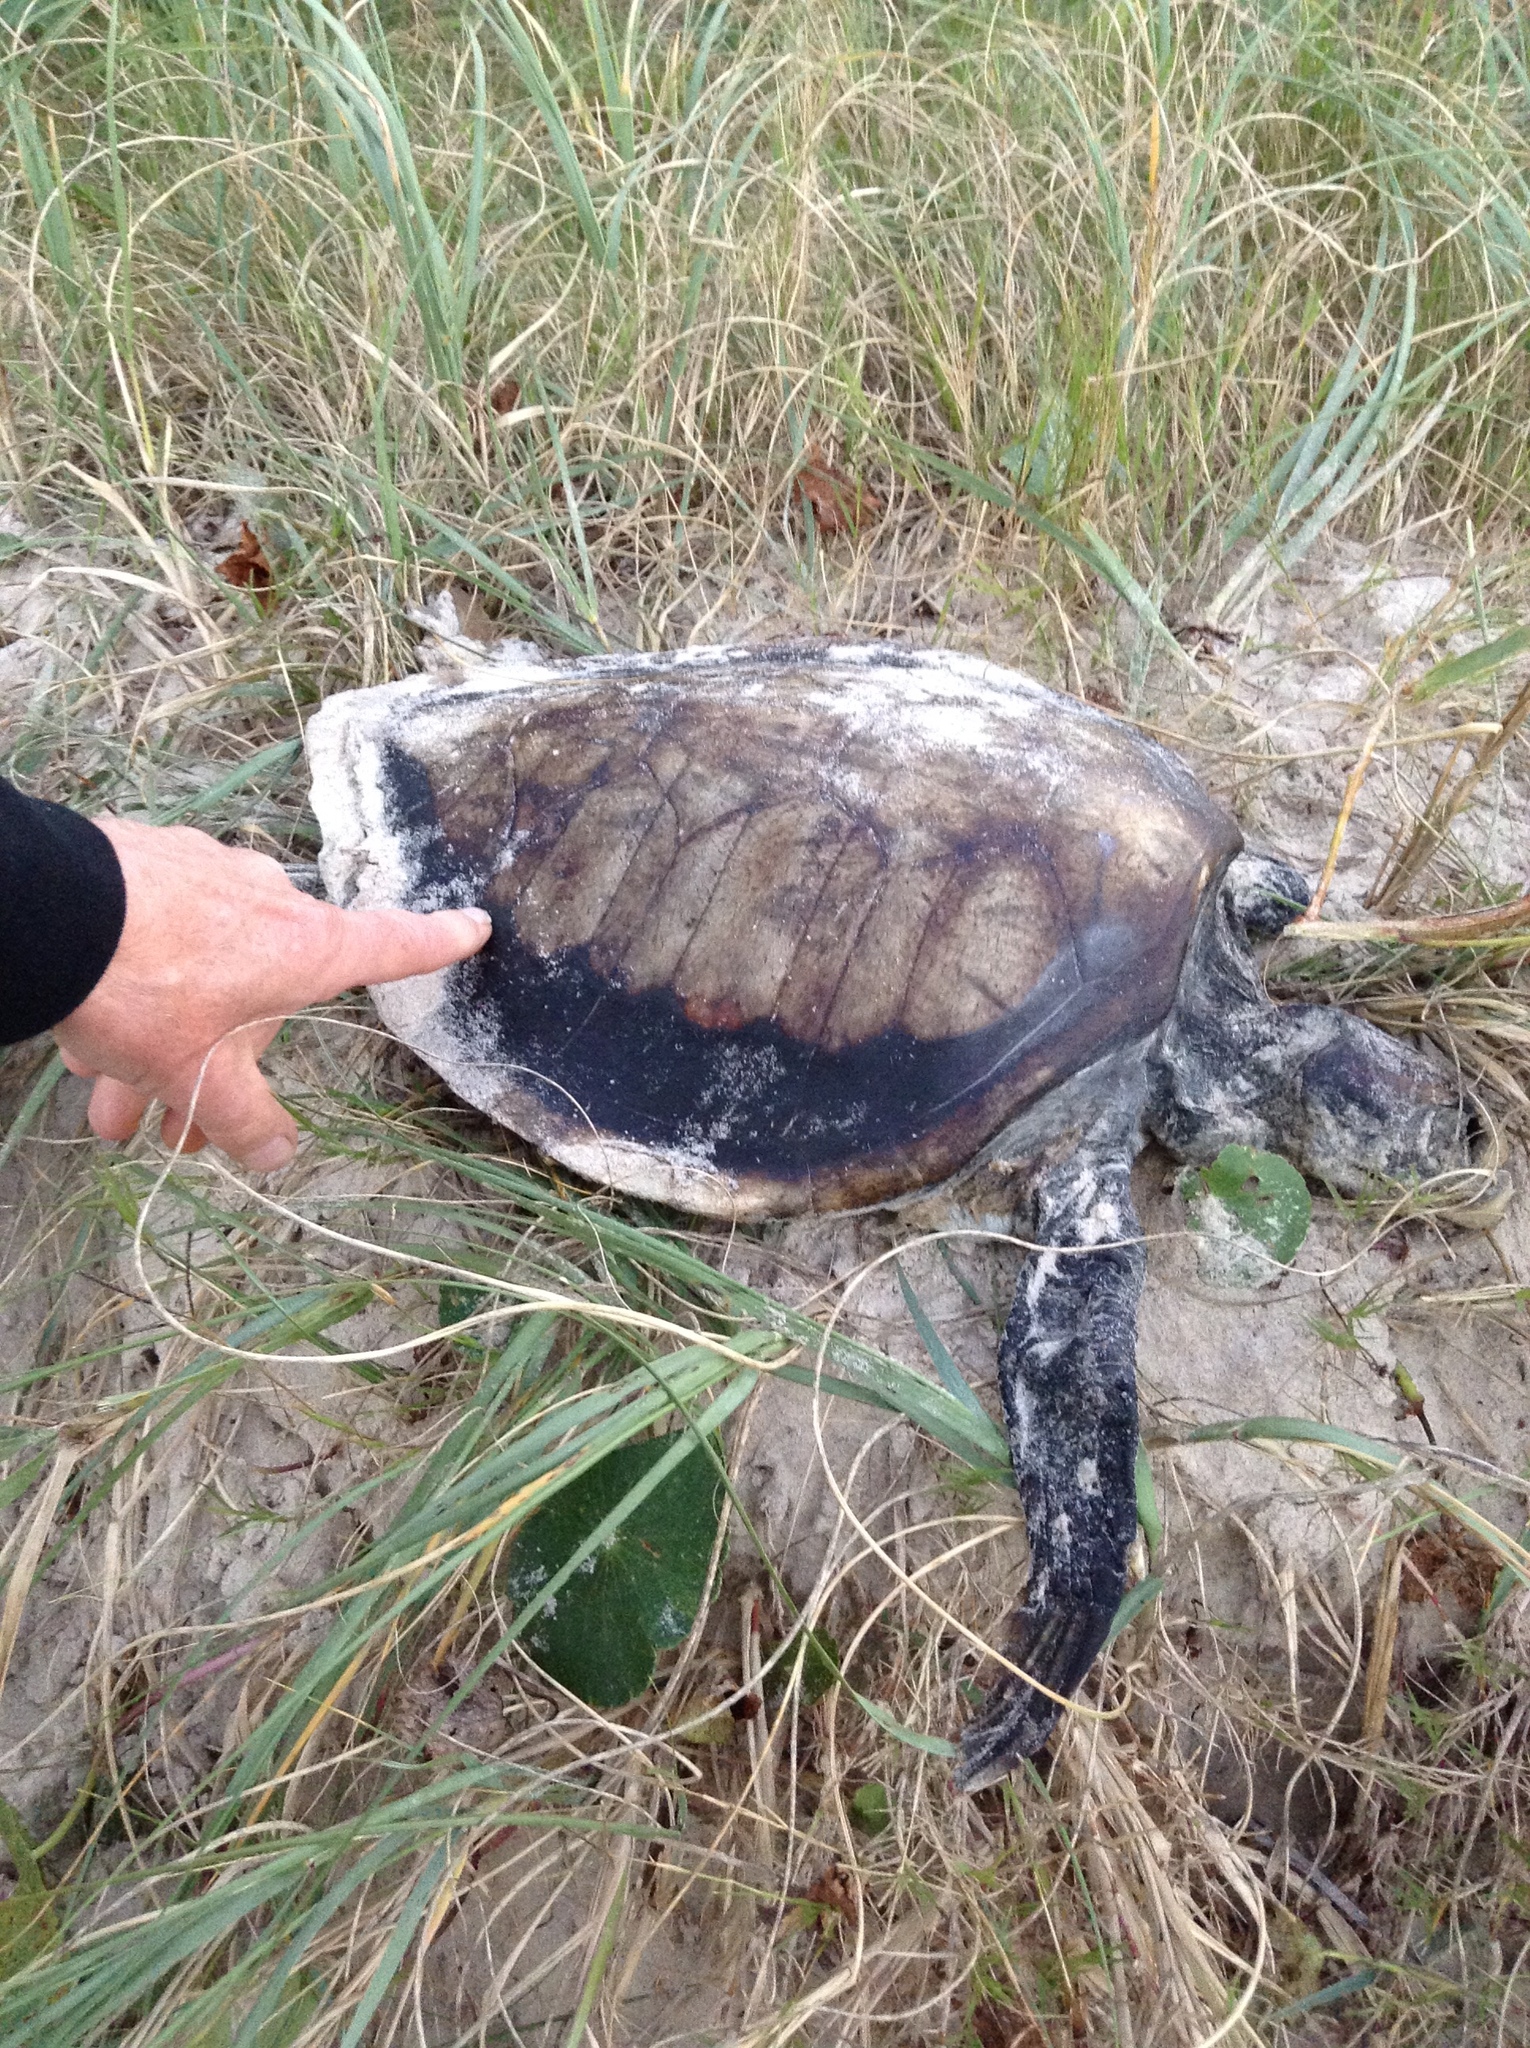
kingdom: Animalia
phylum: Chordata
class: Testudines
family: Cheloniidae
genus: Chelonia
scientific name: Chelonia mydas
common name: Green turtle
